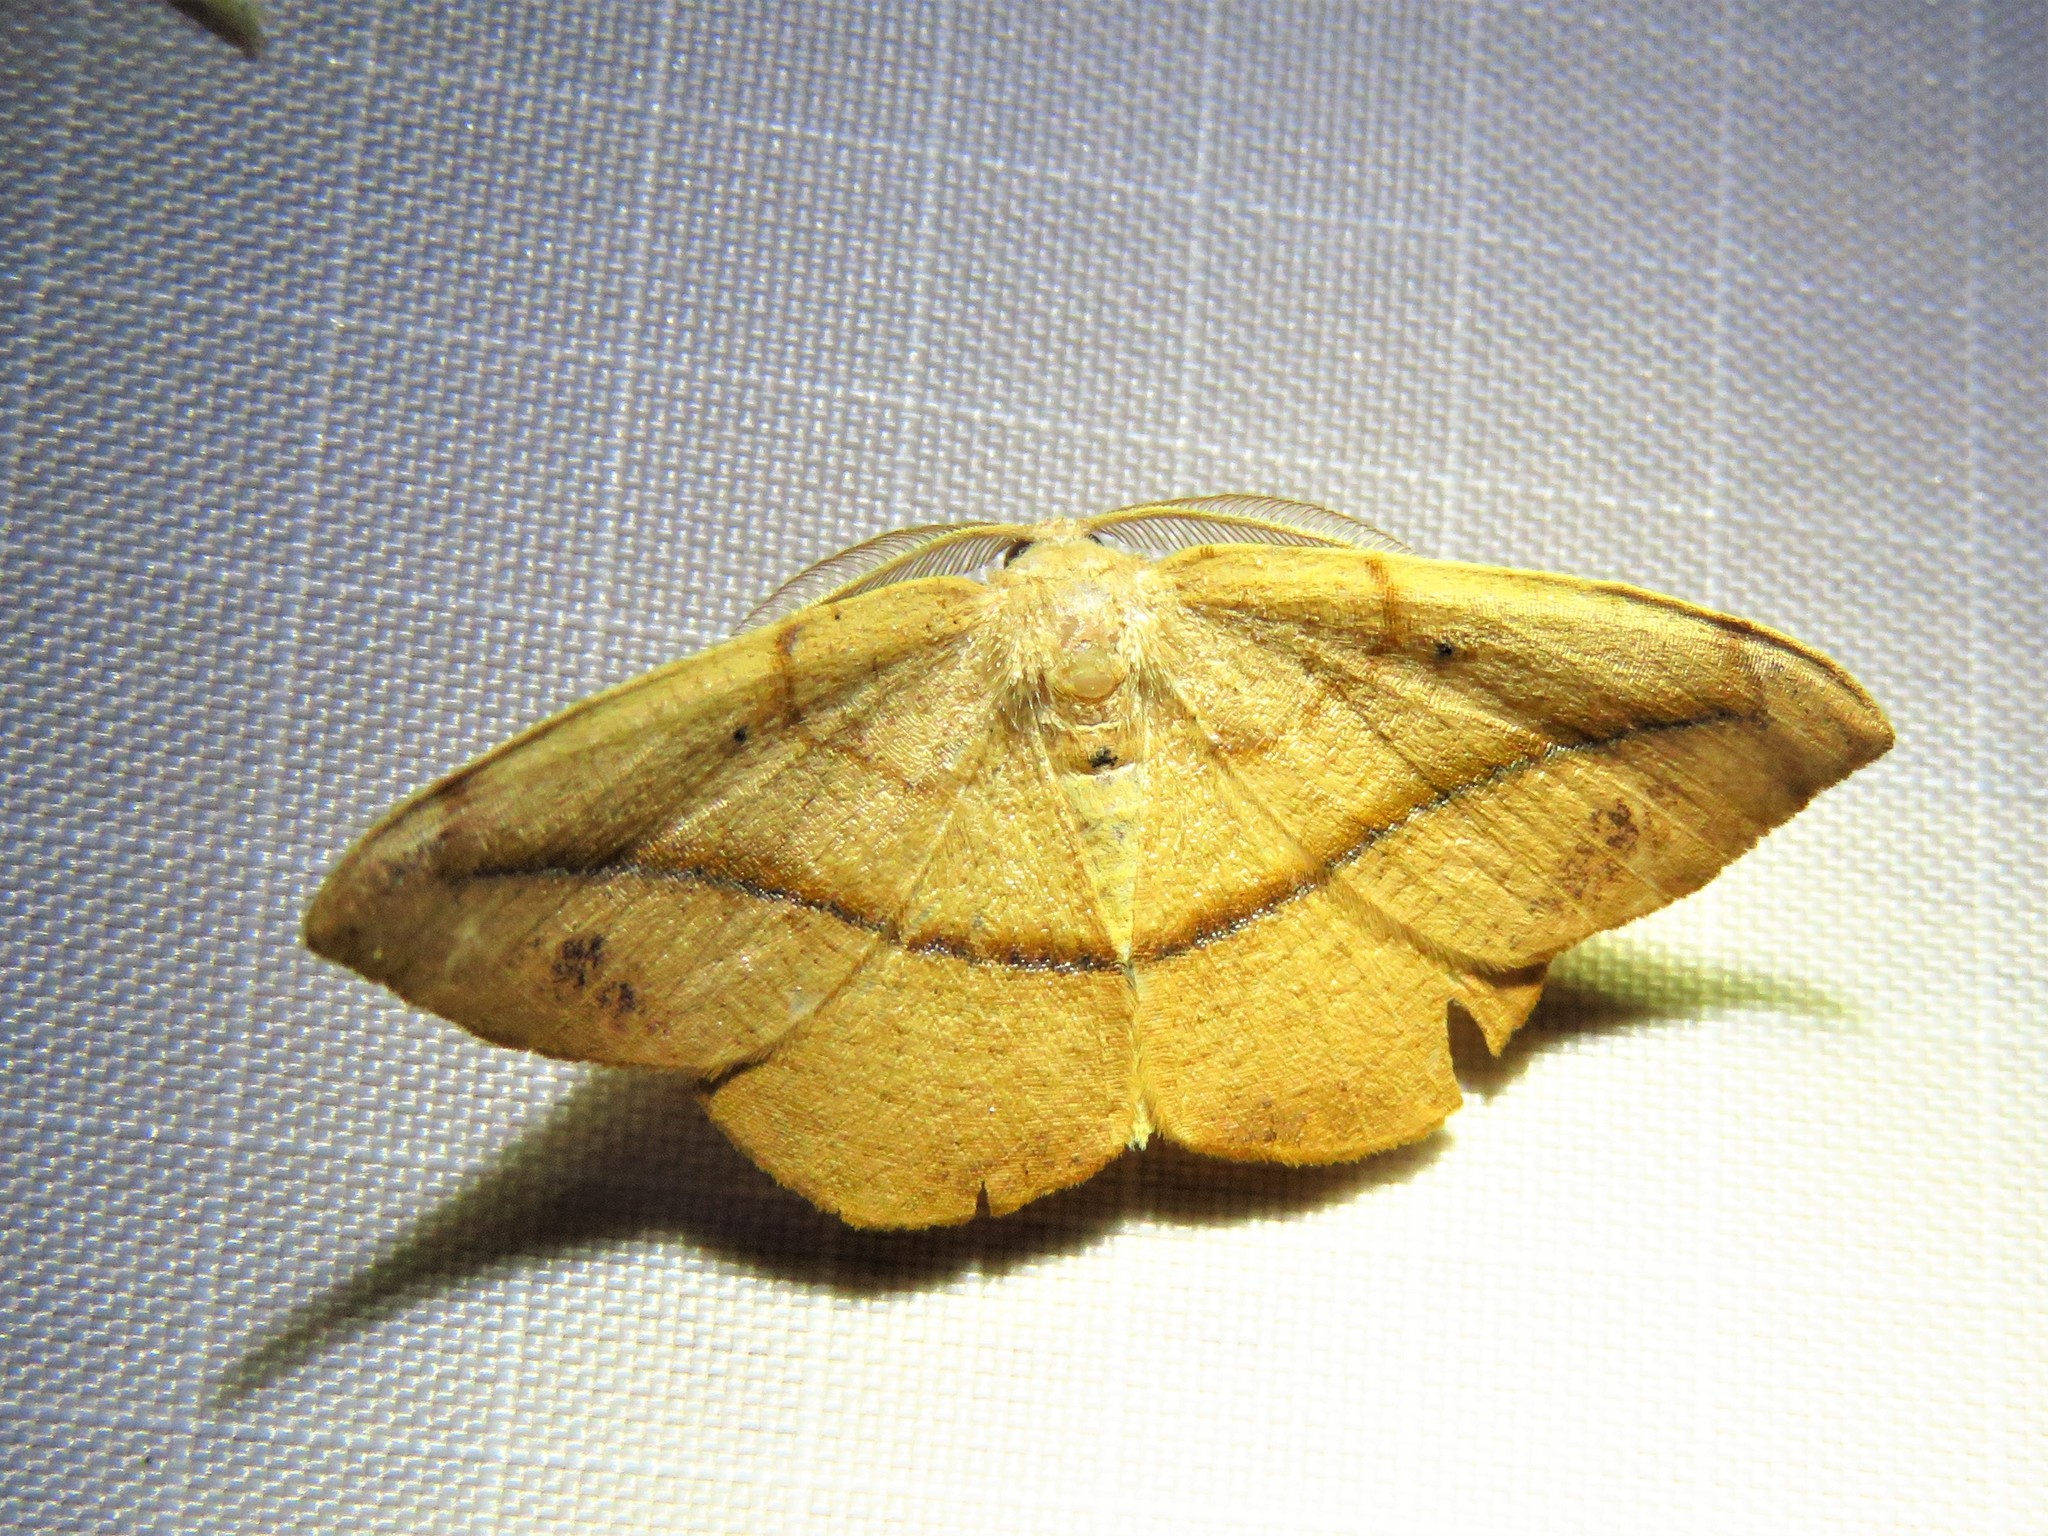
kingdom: Animalia
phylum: Arthropoda
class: Insecta
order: Lepidoptera
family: Geometridae
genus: Patalene
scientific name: Patalene olyzonaria
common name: Juniper geometer moth
